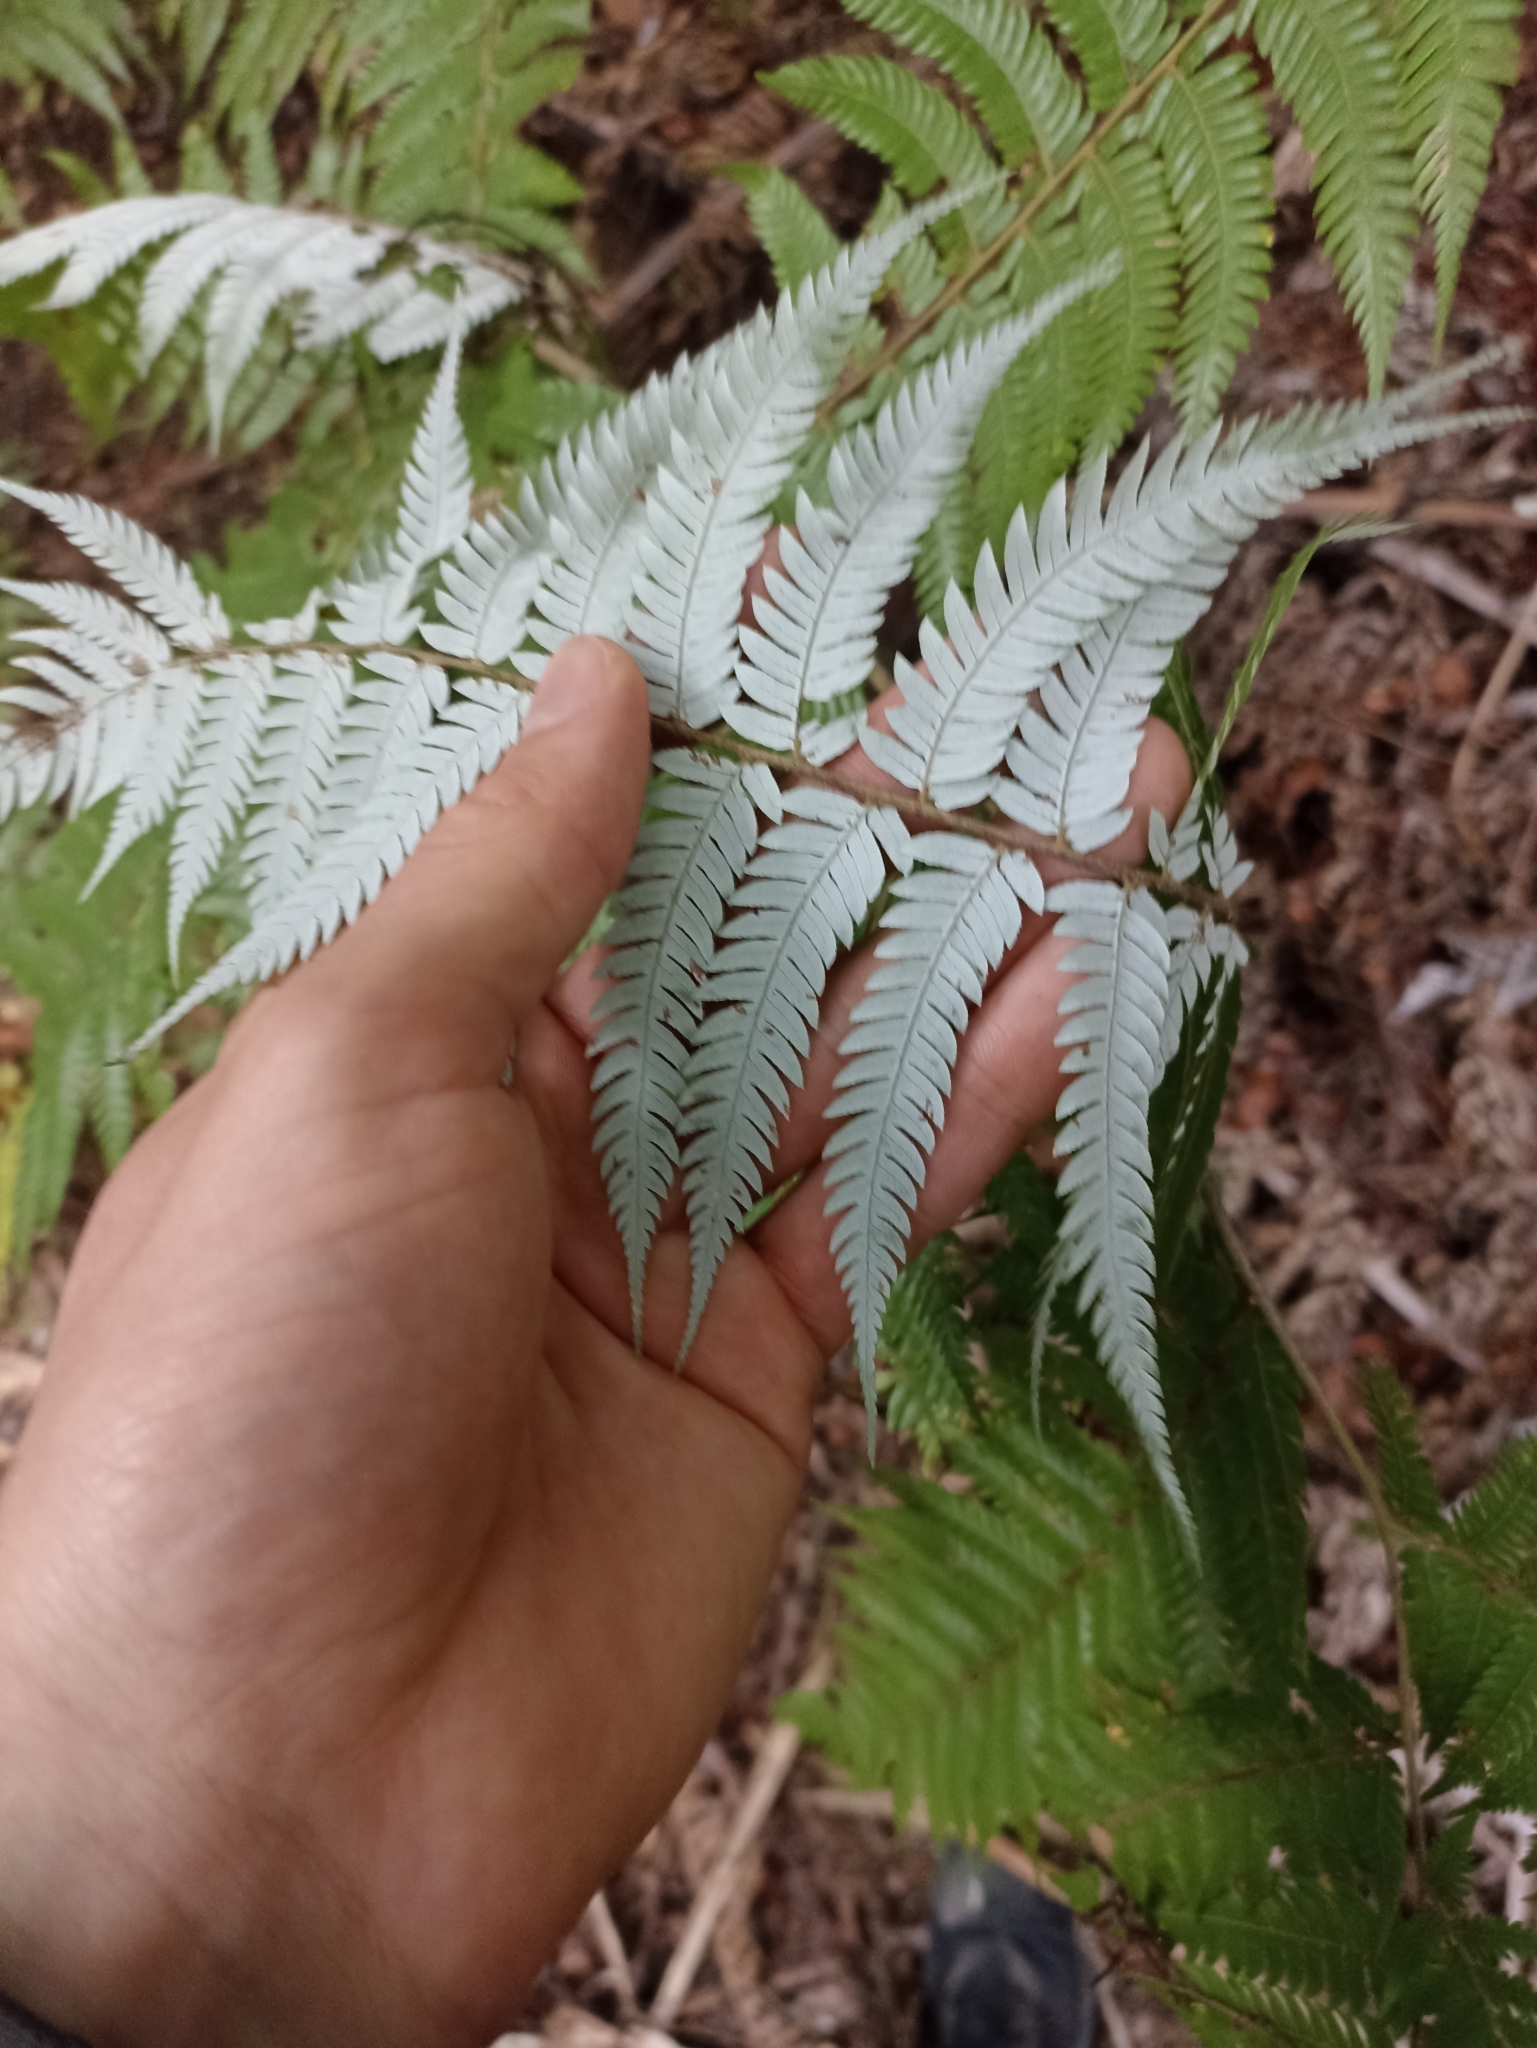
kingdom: Plantae
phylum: Tracheophyta
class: Polypodiopsida
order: Cyatheales
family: Cyatheaceae
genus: Alsophila
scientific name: Alsophila dealbata
